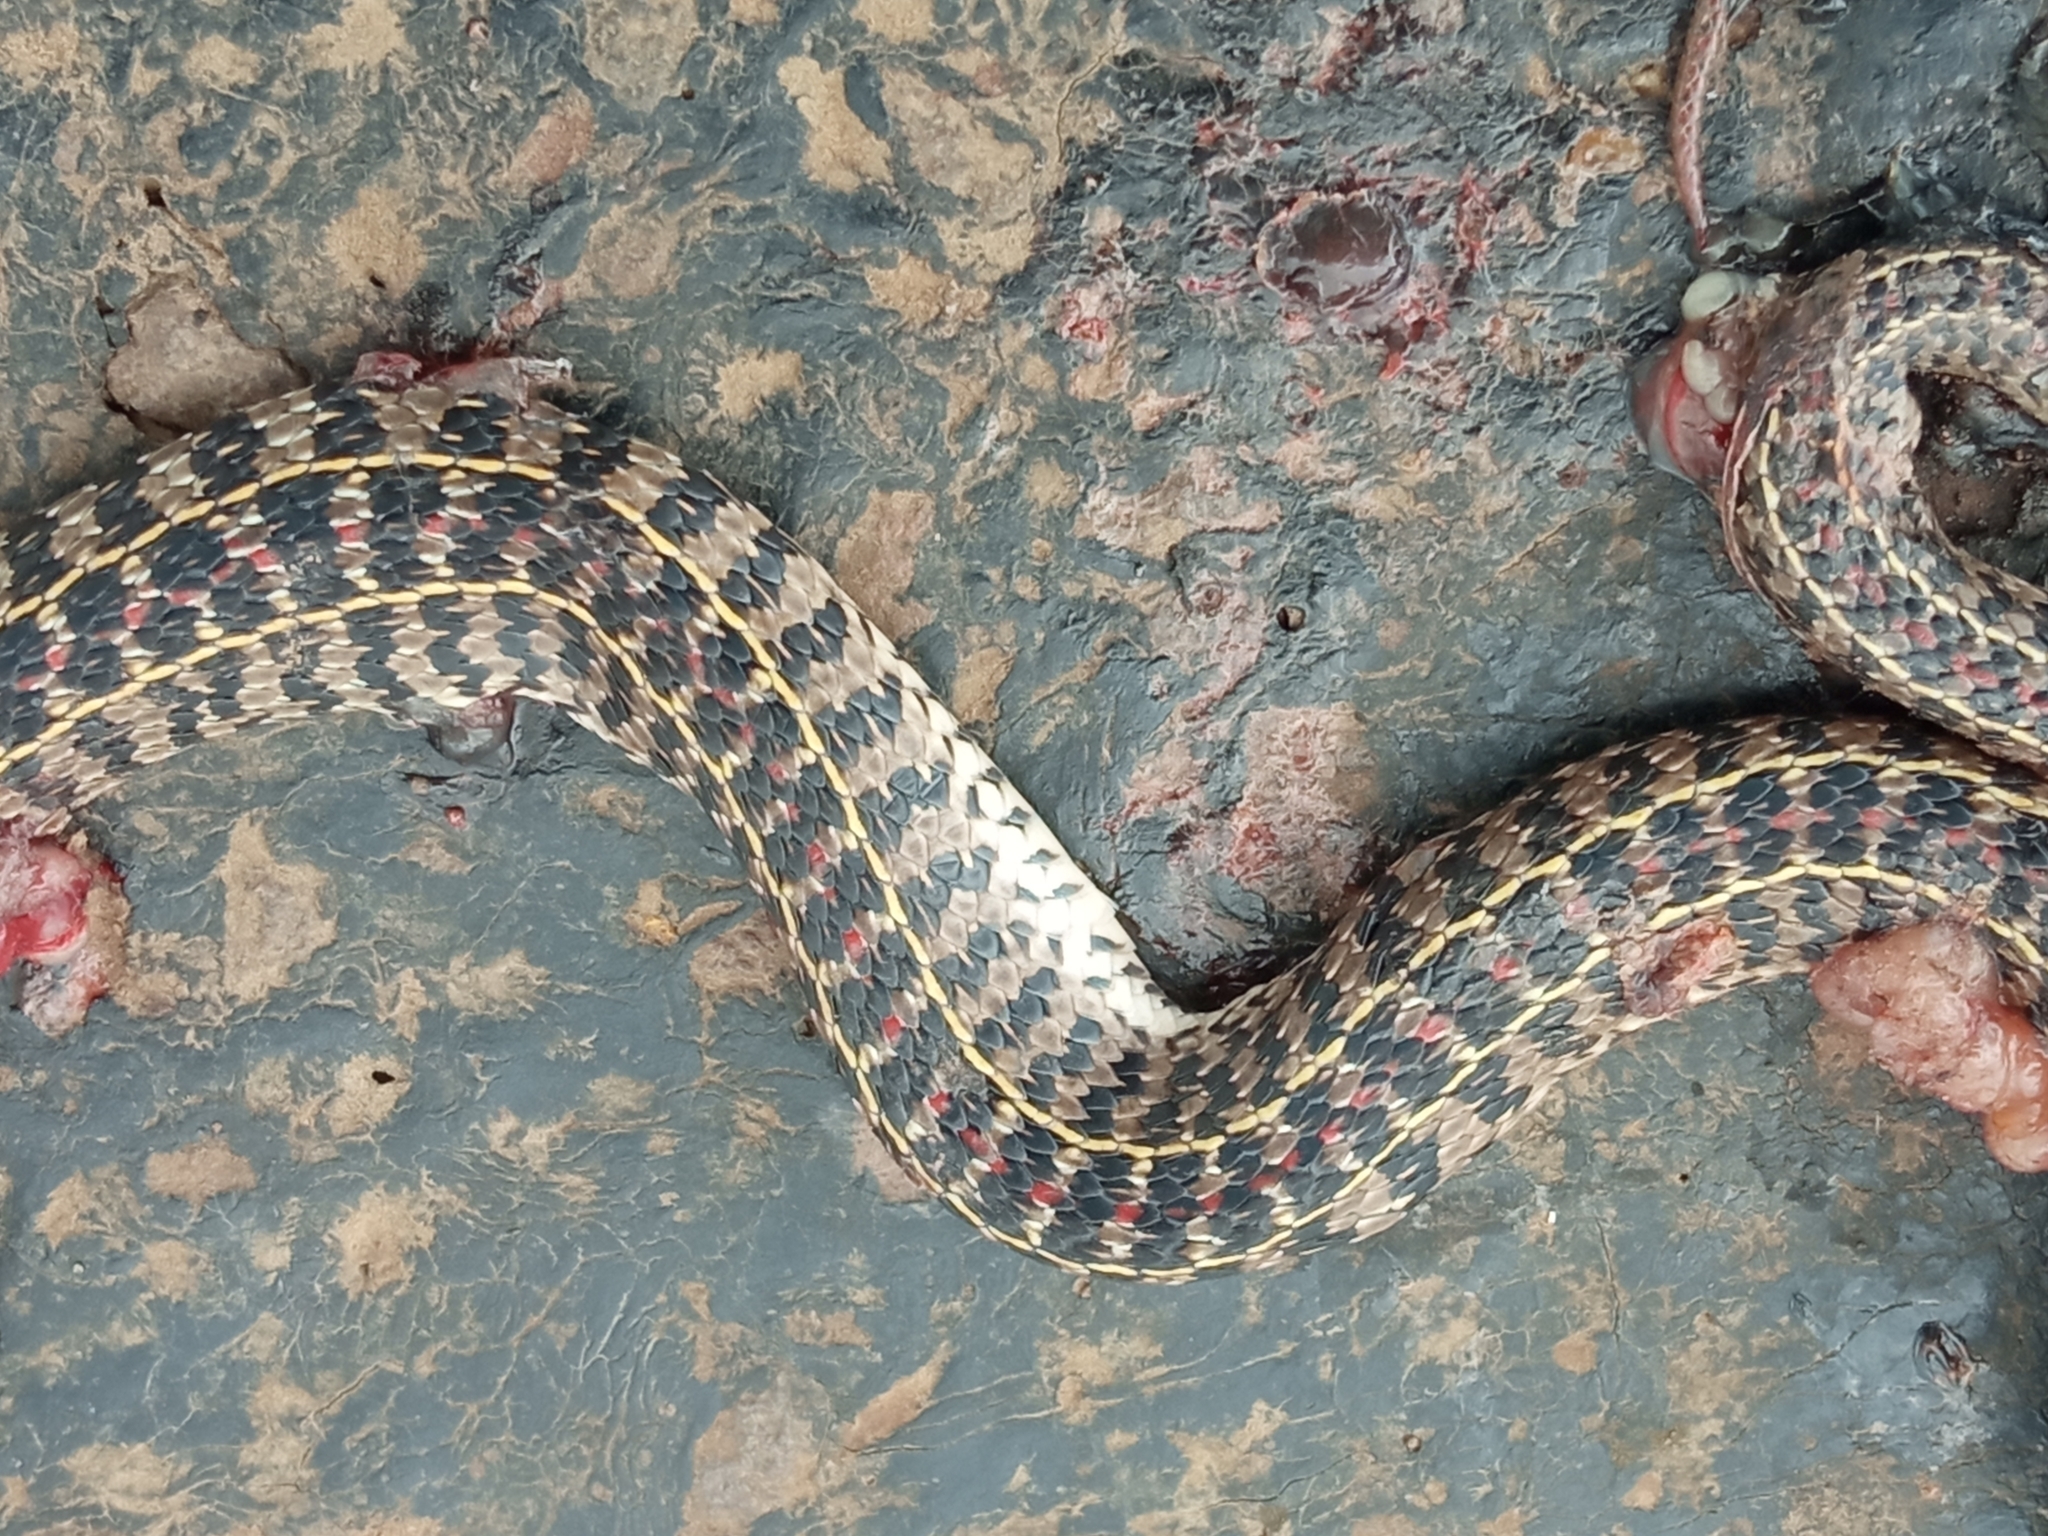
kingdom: Animalia
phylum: Chordata
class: Squamata
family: Colubridae
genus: Lygophis
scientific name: Lygophis anomalus
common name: English common name not available
